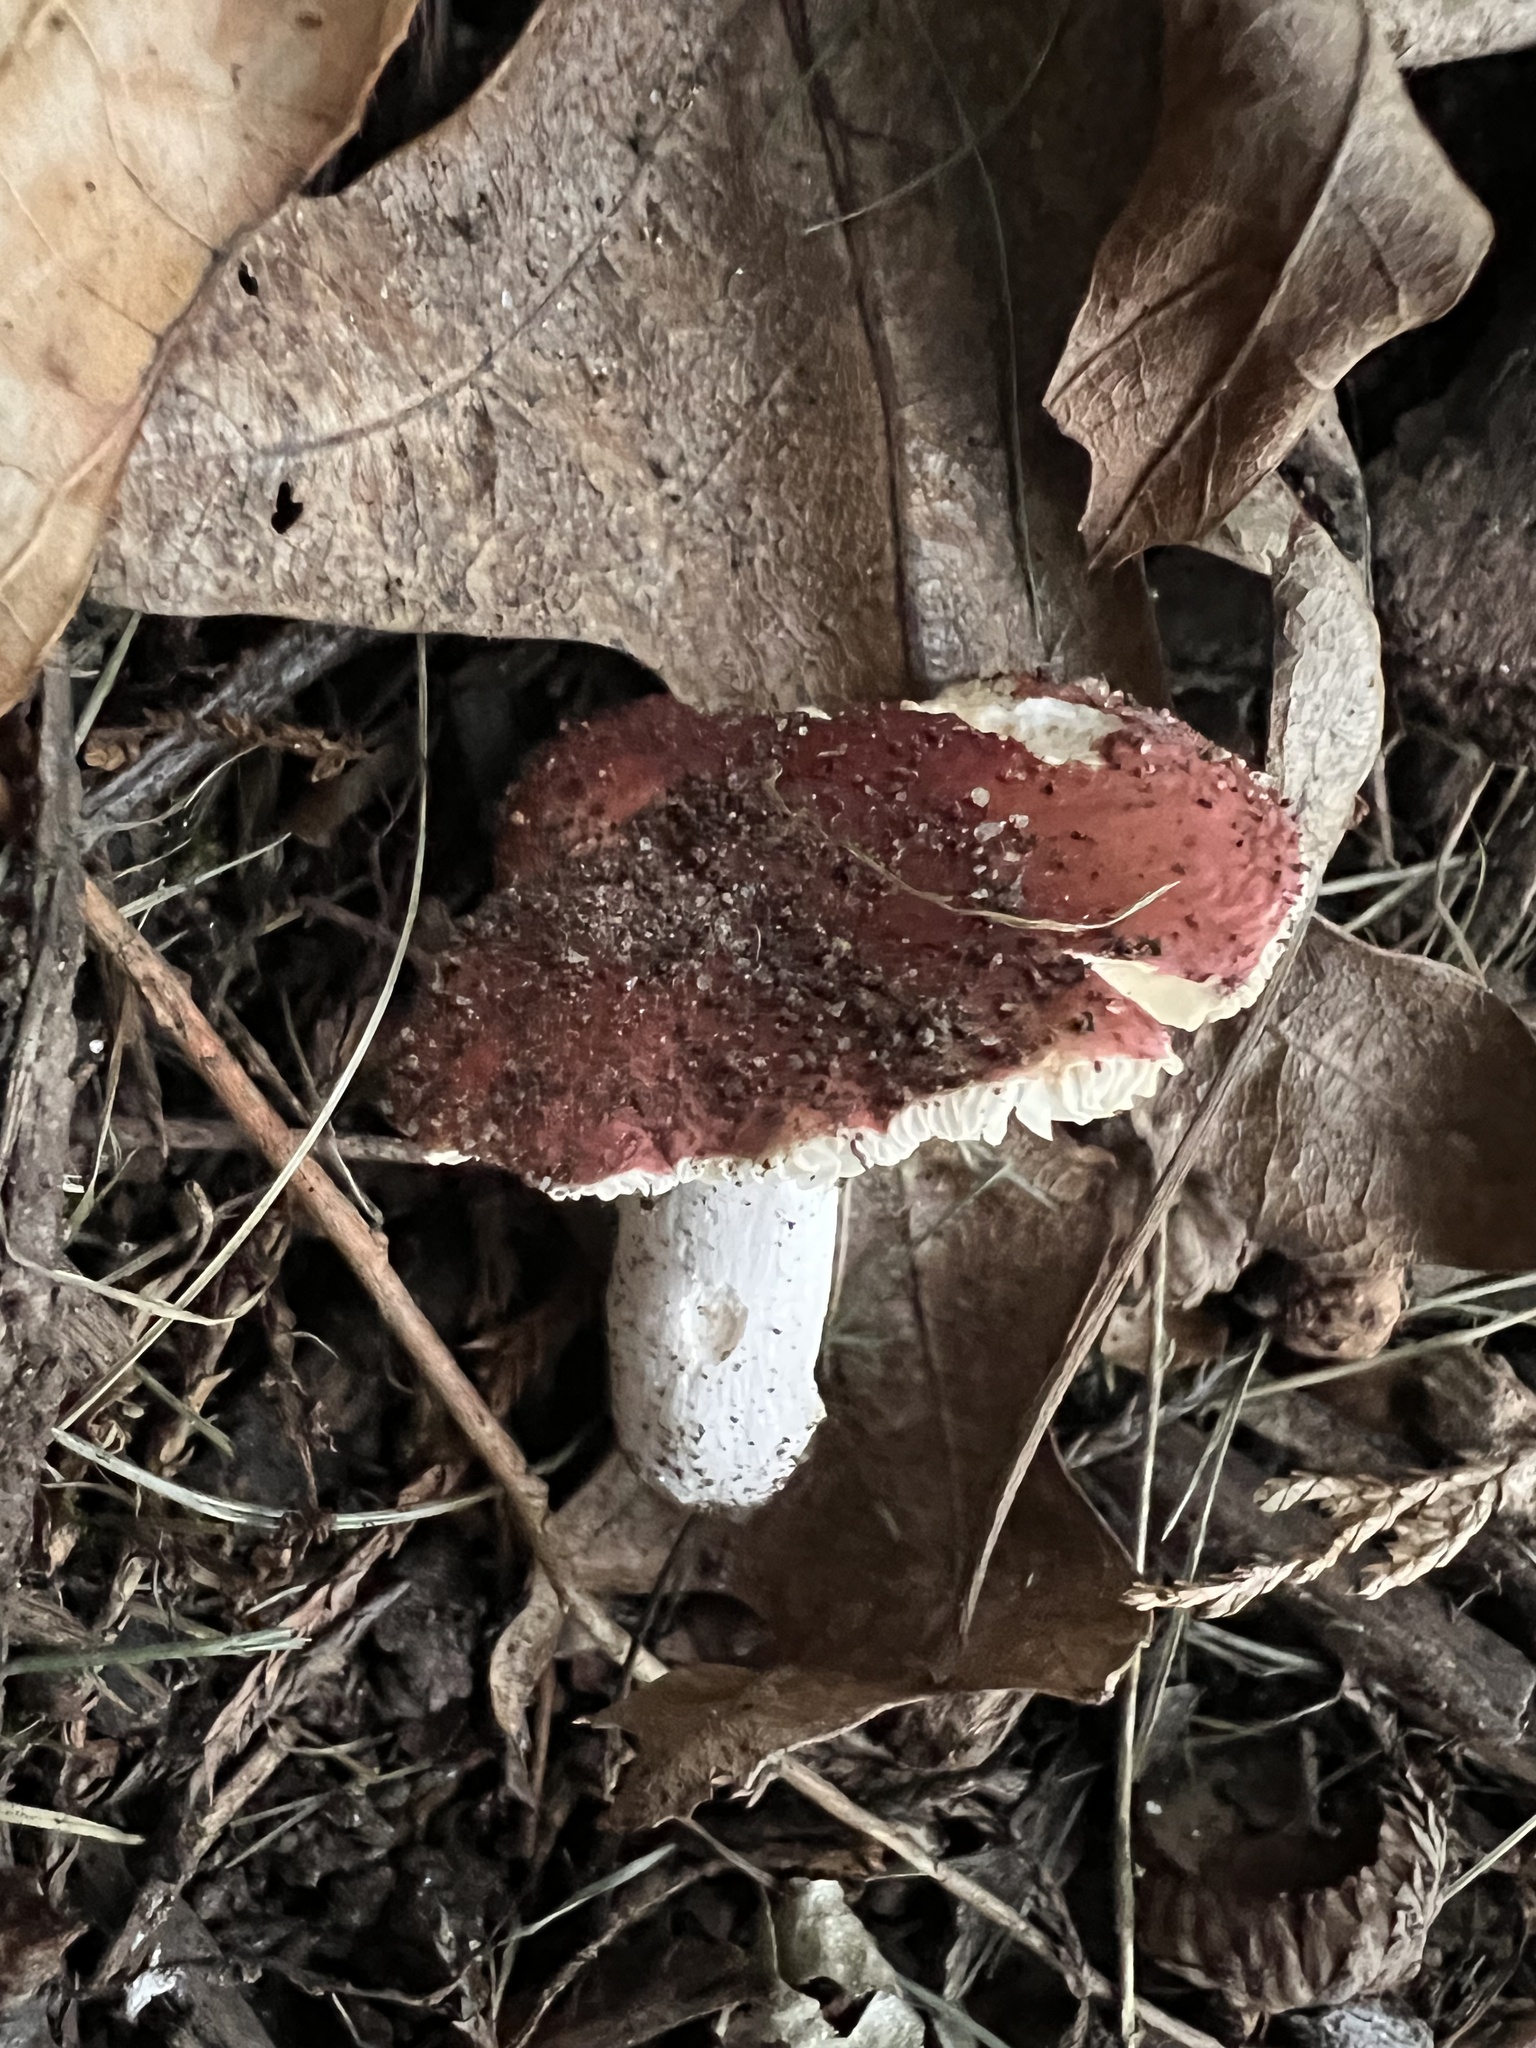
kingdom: Fungi
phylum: Basidiomycota
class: Agaricomycetes
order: Russulales
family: Russulaceae
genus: Russula
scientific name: Russula
